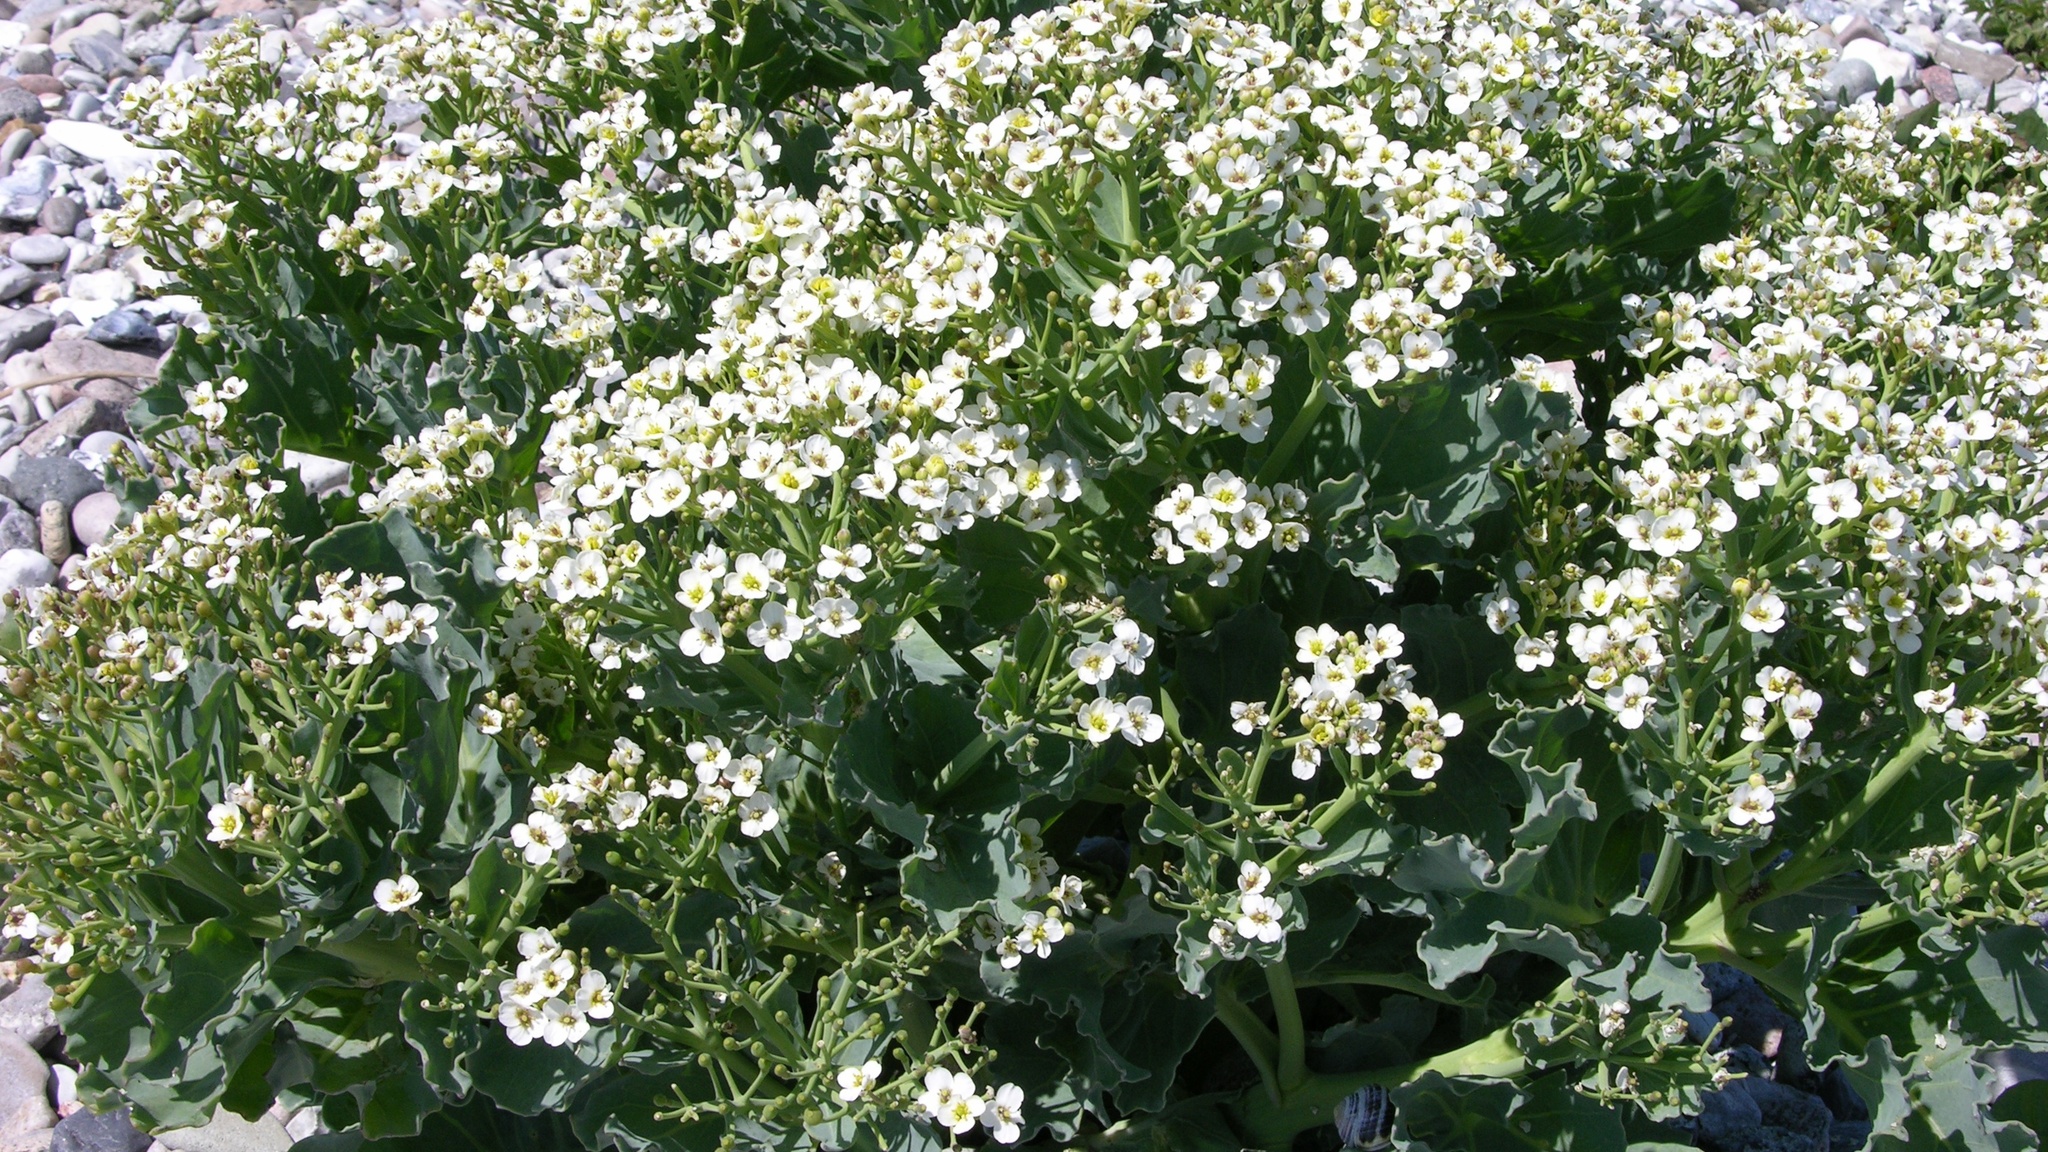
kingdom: Plantae
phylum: Tracheophyta
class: Magnoliopsida
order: Brassicales
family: Brassicaceae
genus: Crambe
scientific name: Crambe maritima
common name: Sea-kale
